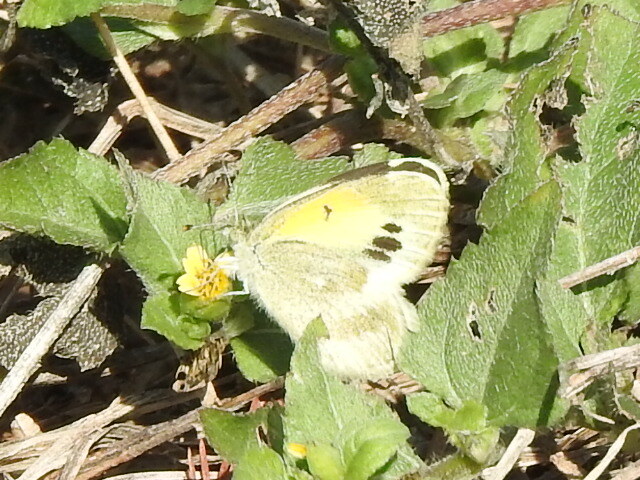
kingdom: Animalia
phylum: Arthropoda
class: Insecta
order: Lepidoptera
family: Pieridae
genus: Nathalis
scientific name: Nathalis iole
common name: Dainty sulphur
